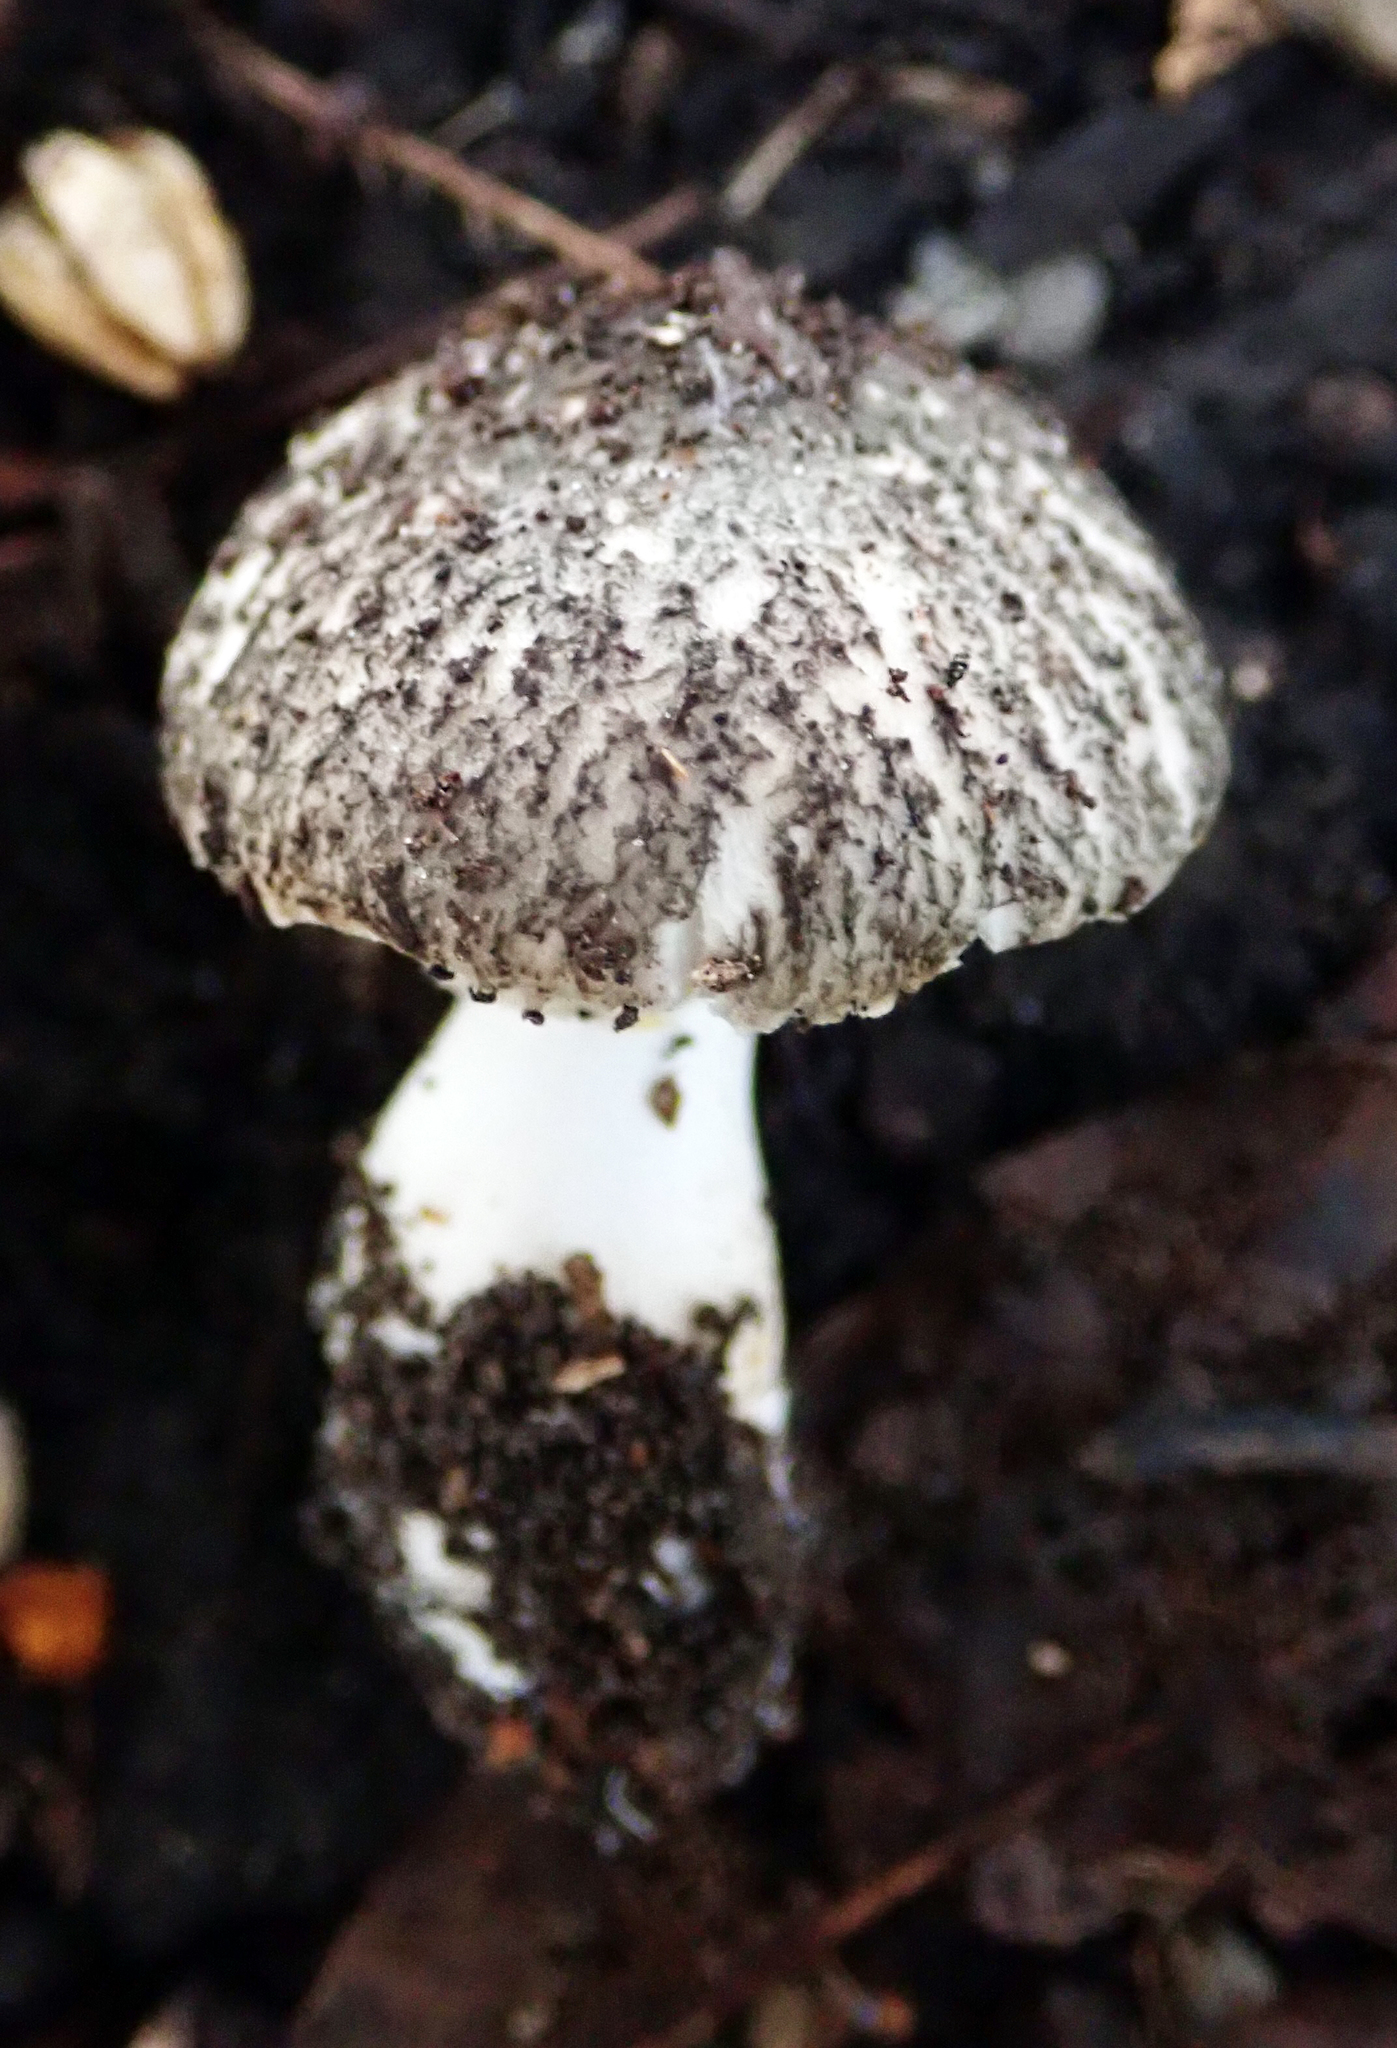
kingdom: Fungi
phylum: Basidiomycota
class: Agaricomycetes
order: Agaricales
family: Agaricaceae
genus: Leucoagaricus
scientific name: Leucoagaricus
